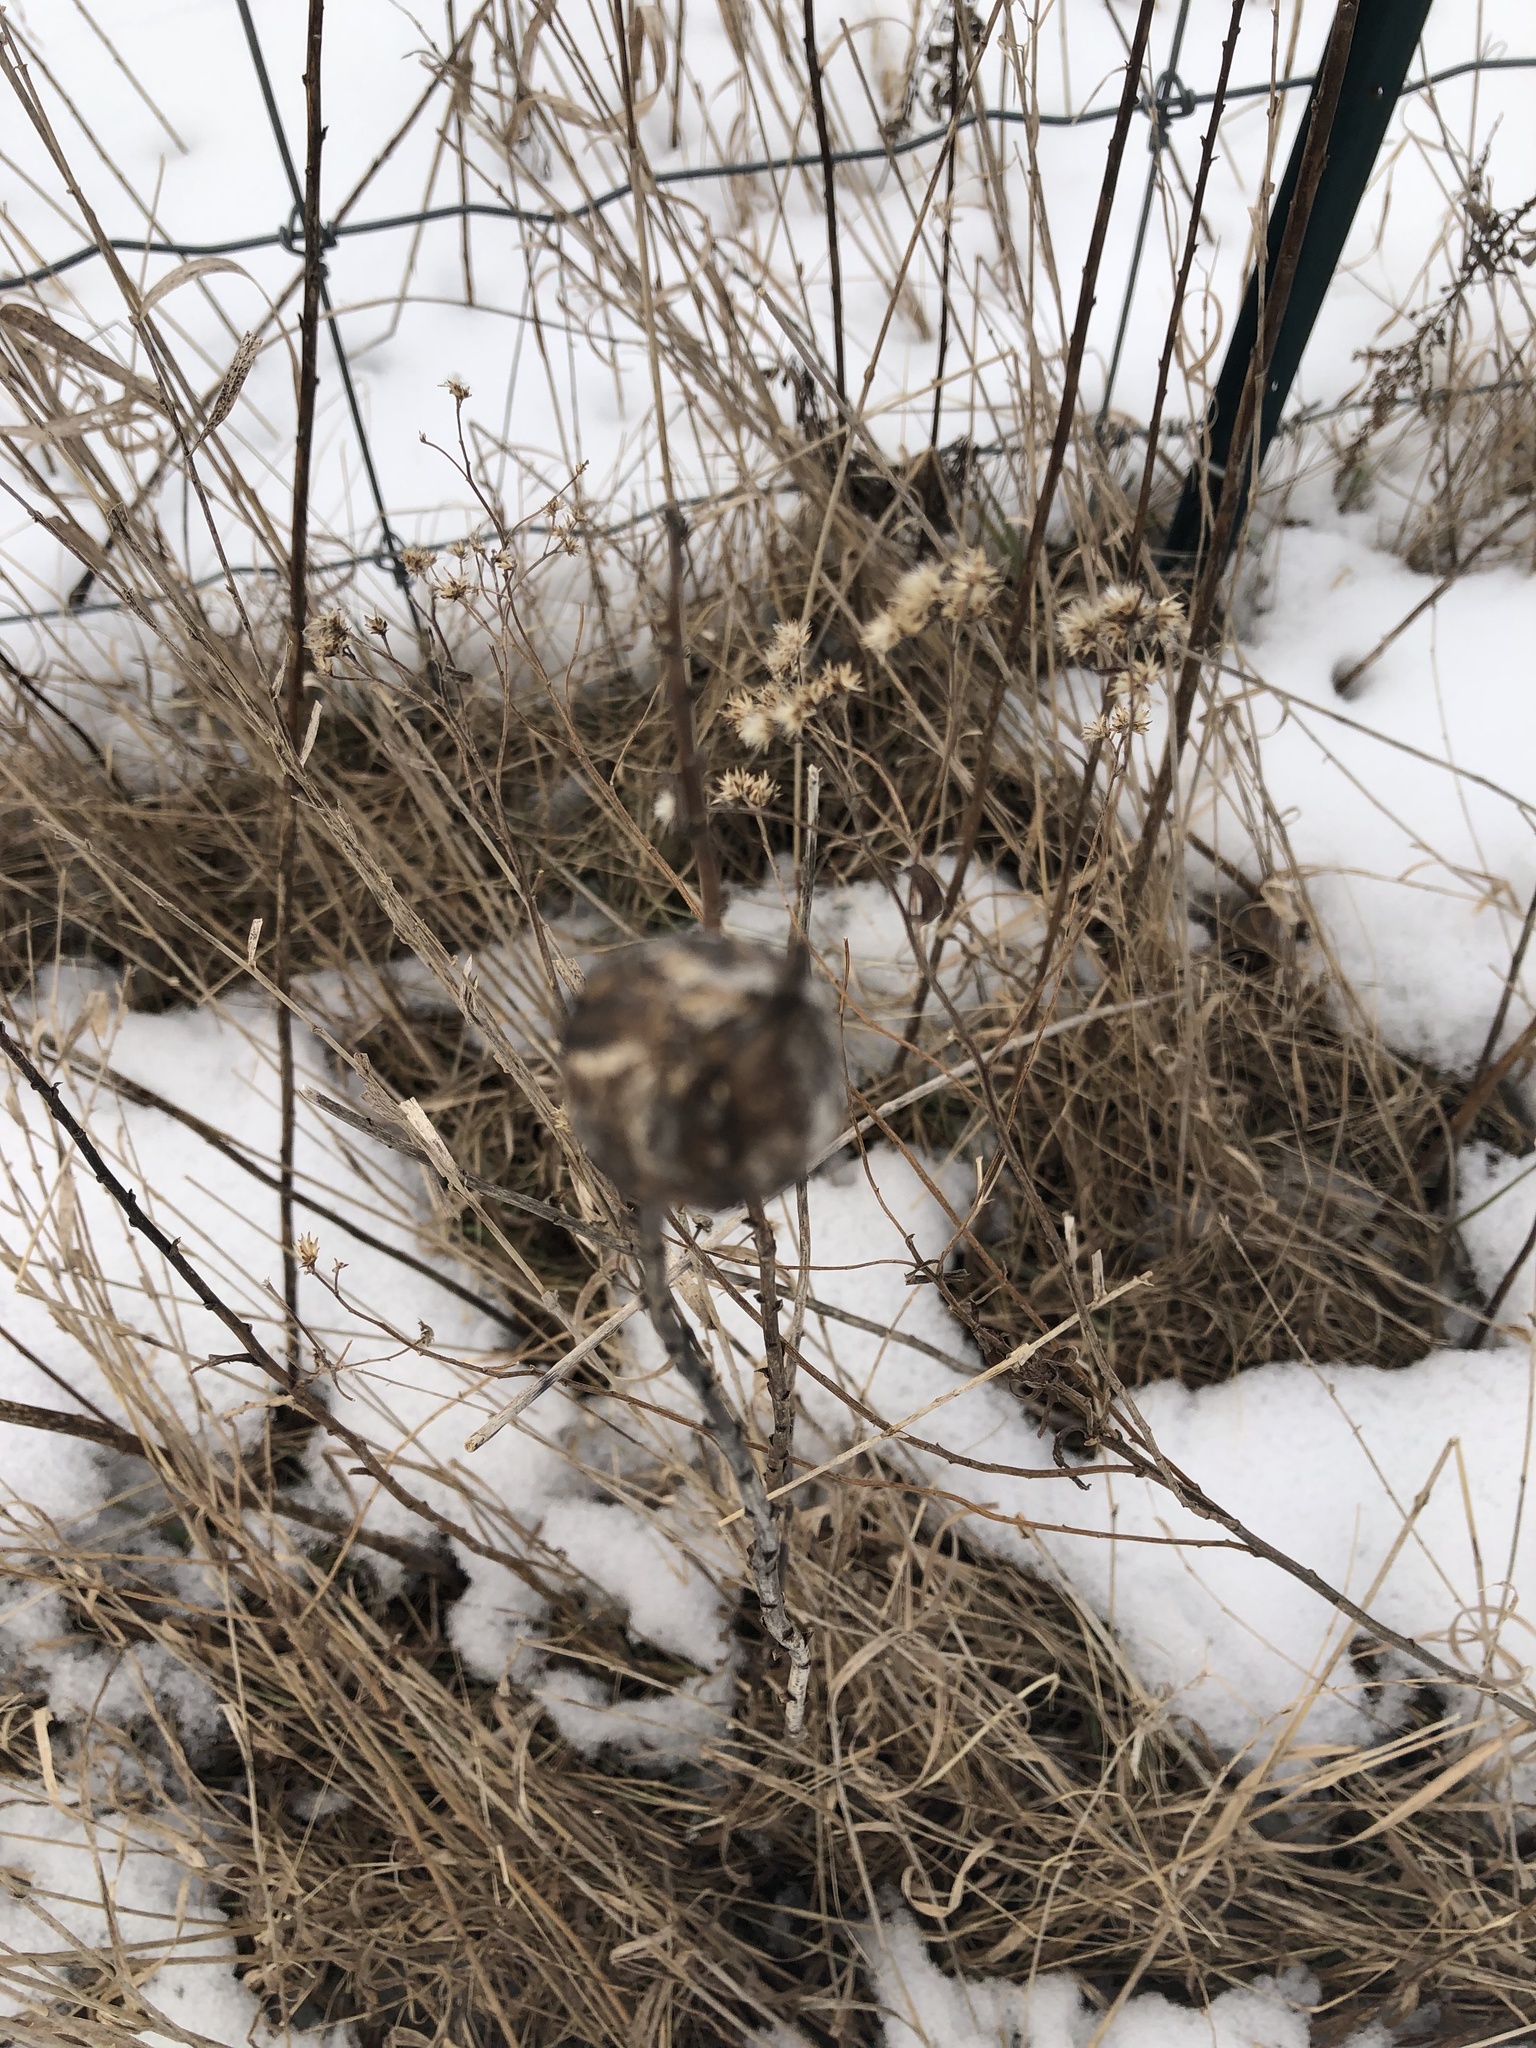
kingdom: Animalia
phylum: Arthropoda
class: Insecta
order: Diptera
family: Tephritidae
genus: Eurosta
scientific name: Eurosta solidaginis
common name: Goldenrod gall fly
